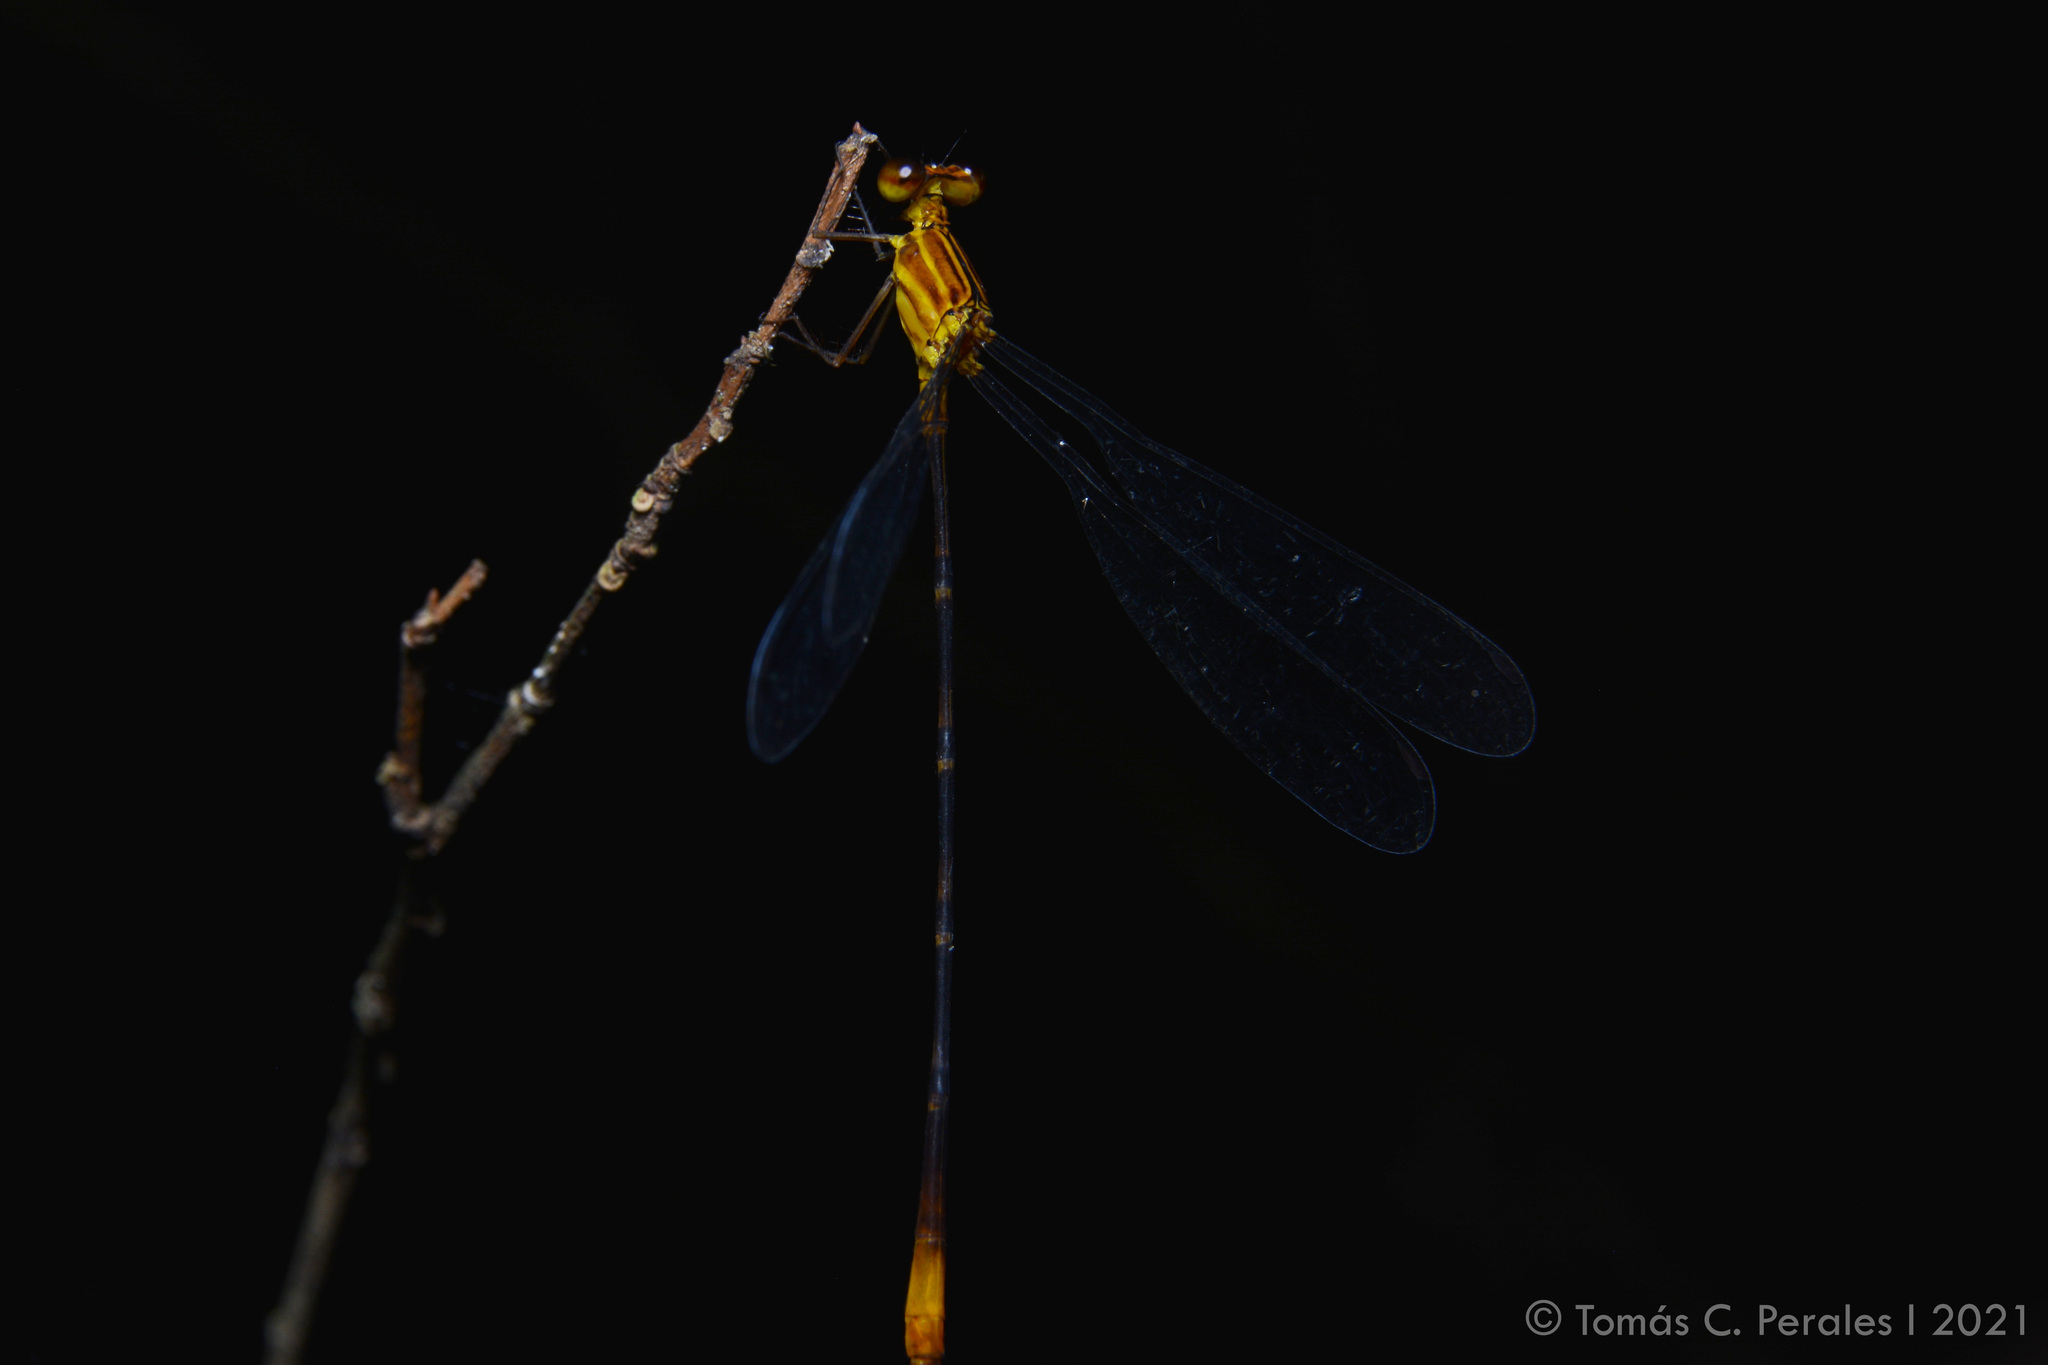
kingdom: Animalia
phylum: Arthropoda
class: Insecta
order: Odonata
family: Heteragrionidae
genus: Heteragrion
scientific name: Heteragrion aurantiacum
